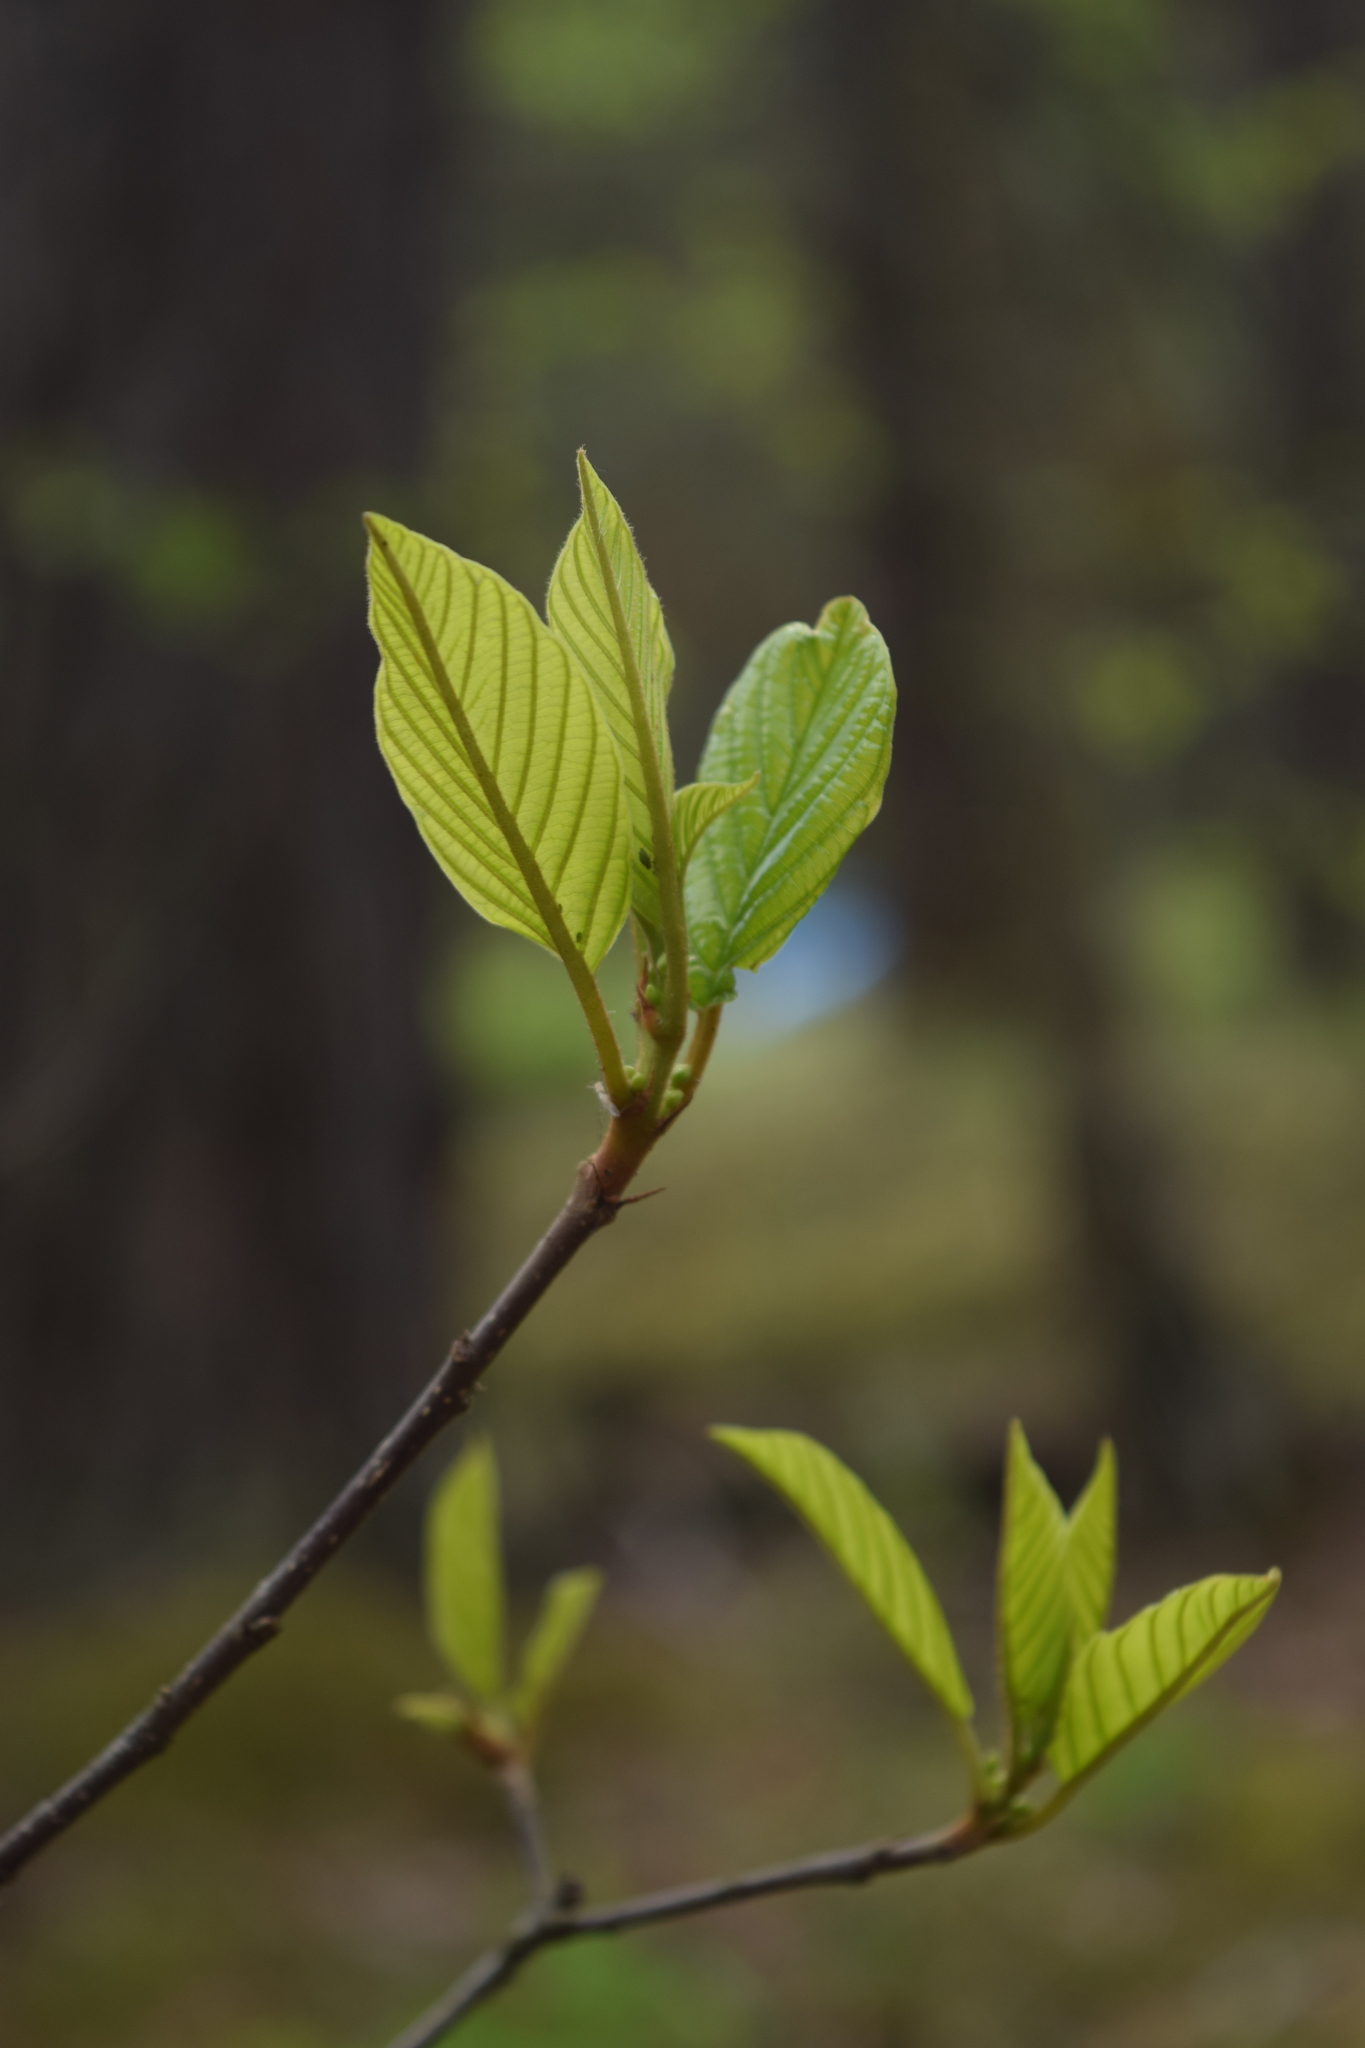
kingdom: Plantae
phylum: Tracheophyta
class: Magnoliopsida
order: Rosales
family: Rhamnaceae
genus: Frangula
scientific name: Frangula alnus
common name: Alder buckthorn
